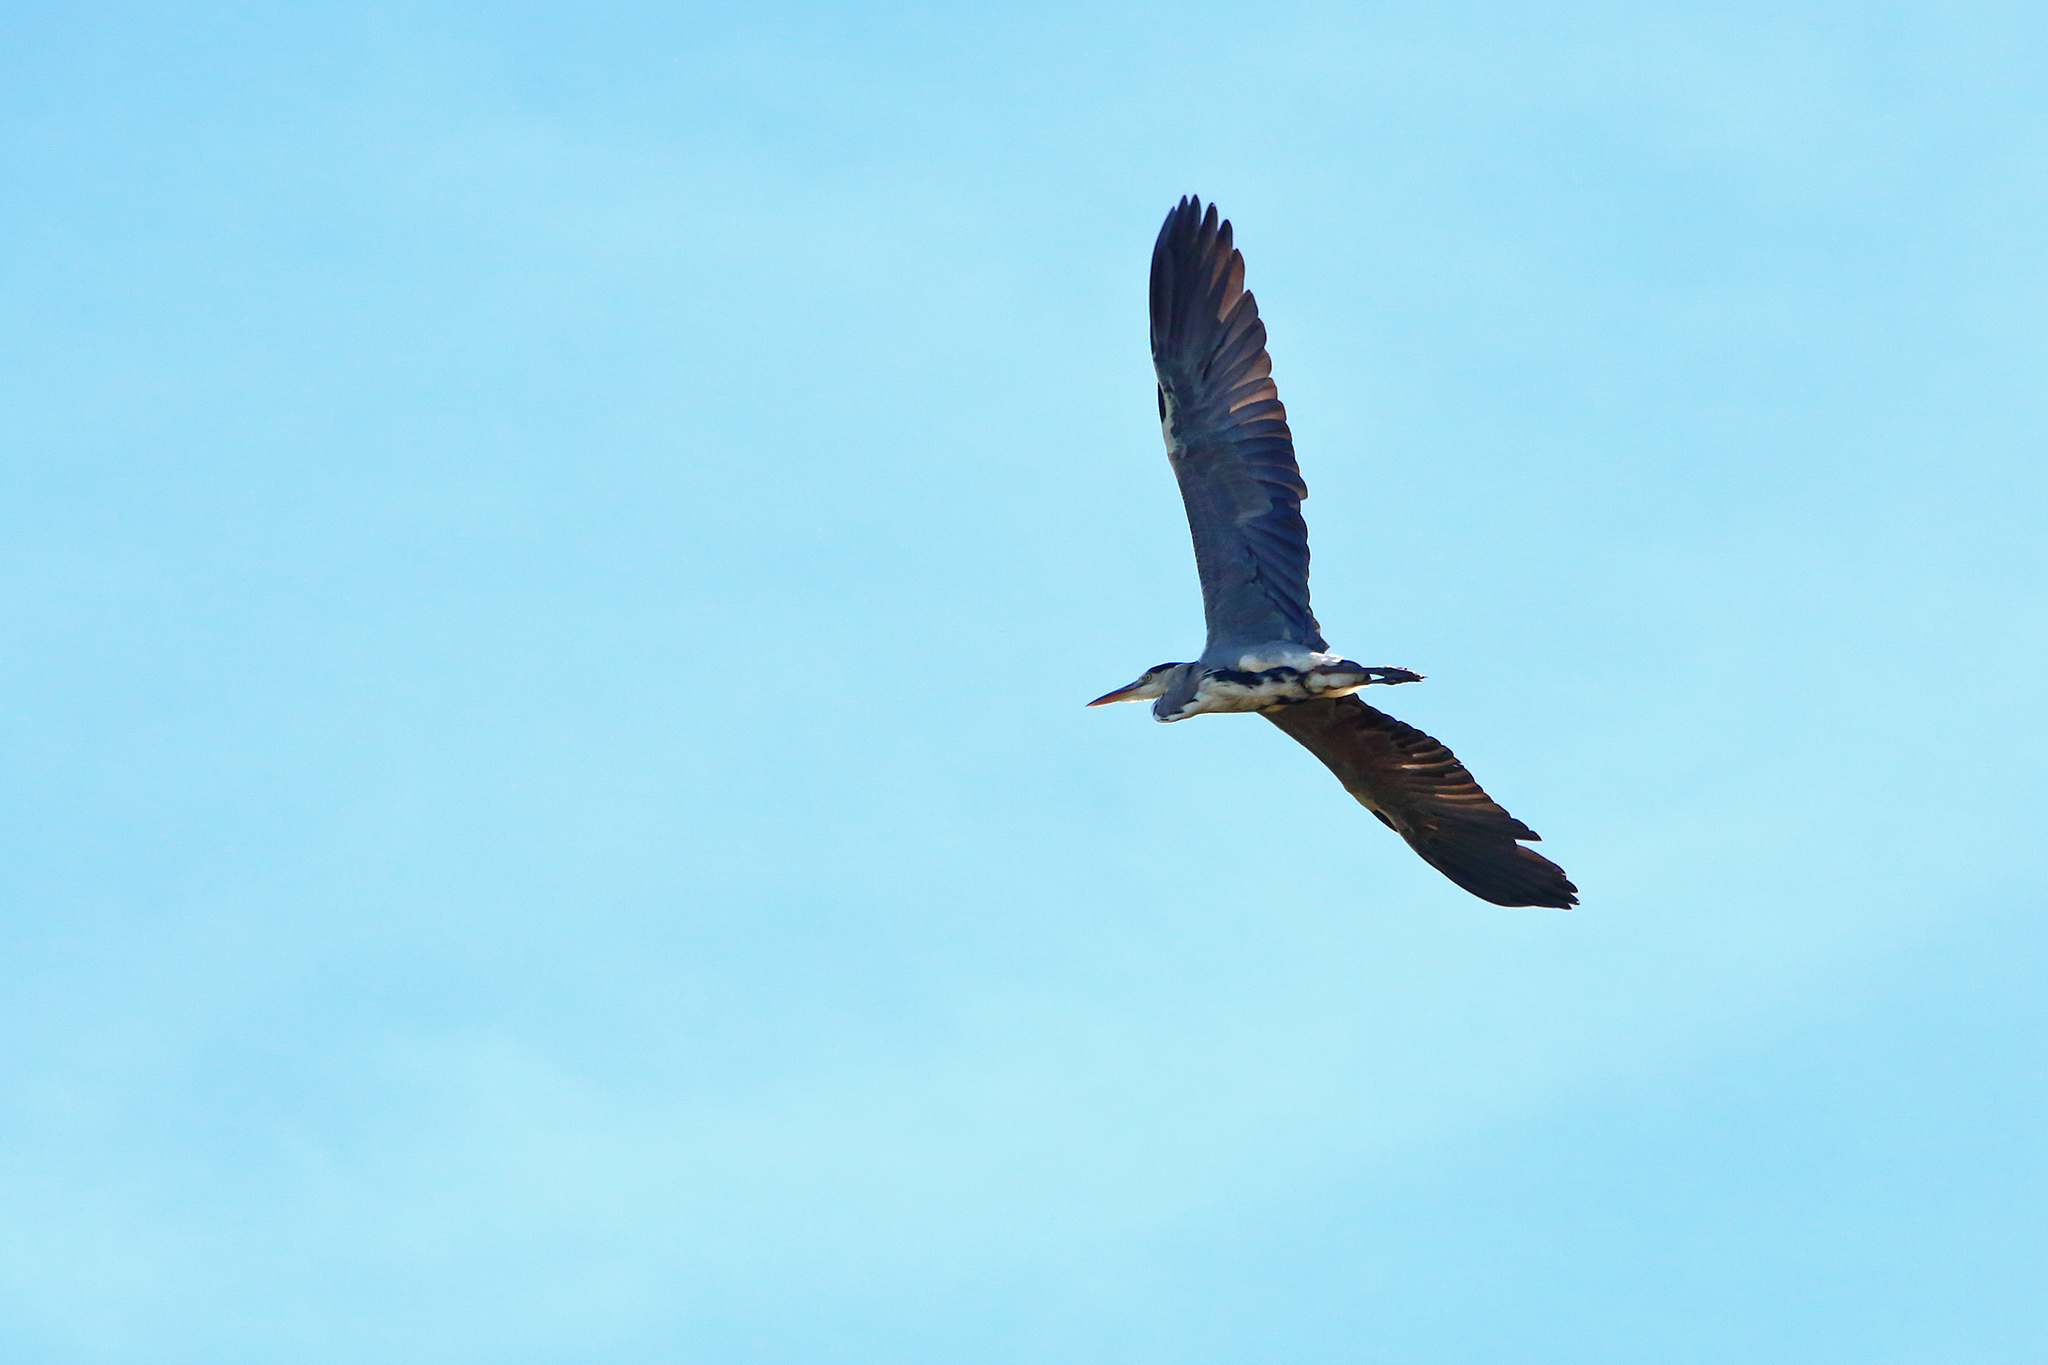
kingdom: Animalia
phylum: Chordata
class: Aves
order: Pelecaniformes
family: Ardeidae
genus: Ardea
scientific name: Ardea cinerea
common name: Grey heron
